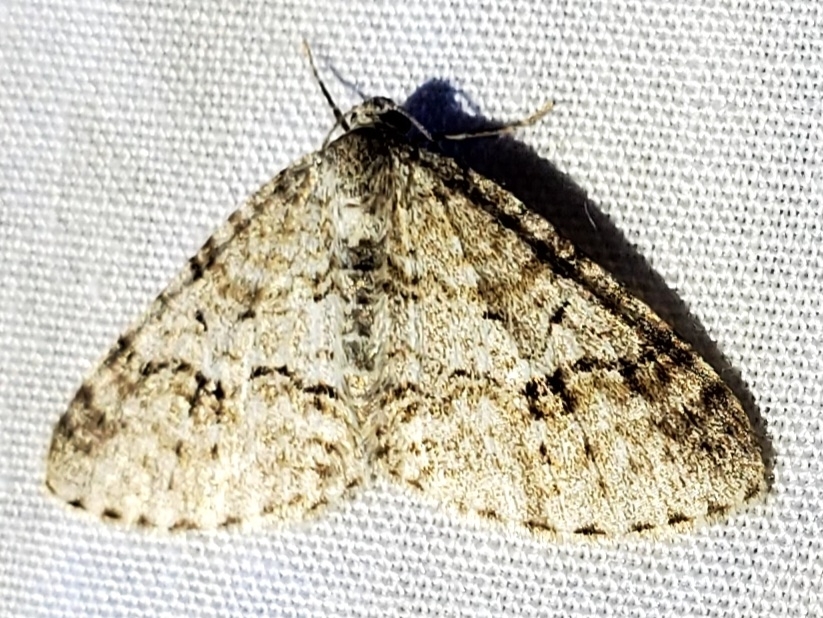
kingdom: Animalia
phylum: Arthropoda
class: Insecta
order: Lepidoptera
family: Geometridae
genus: Venusia
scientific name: Venusia cambrica
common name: Welsh wave
